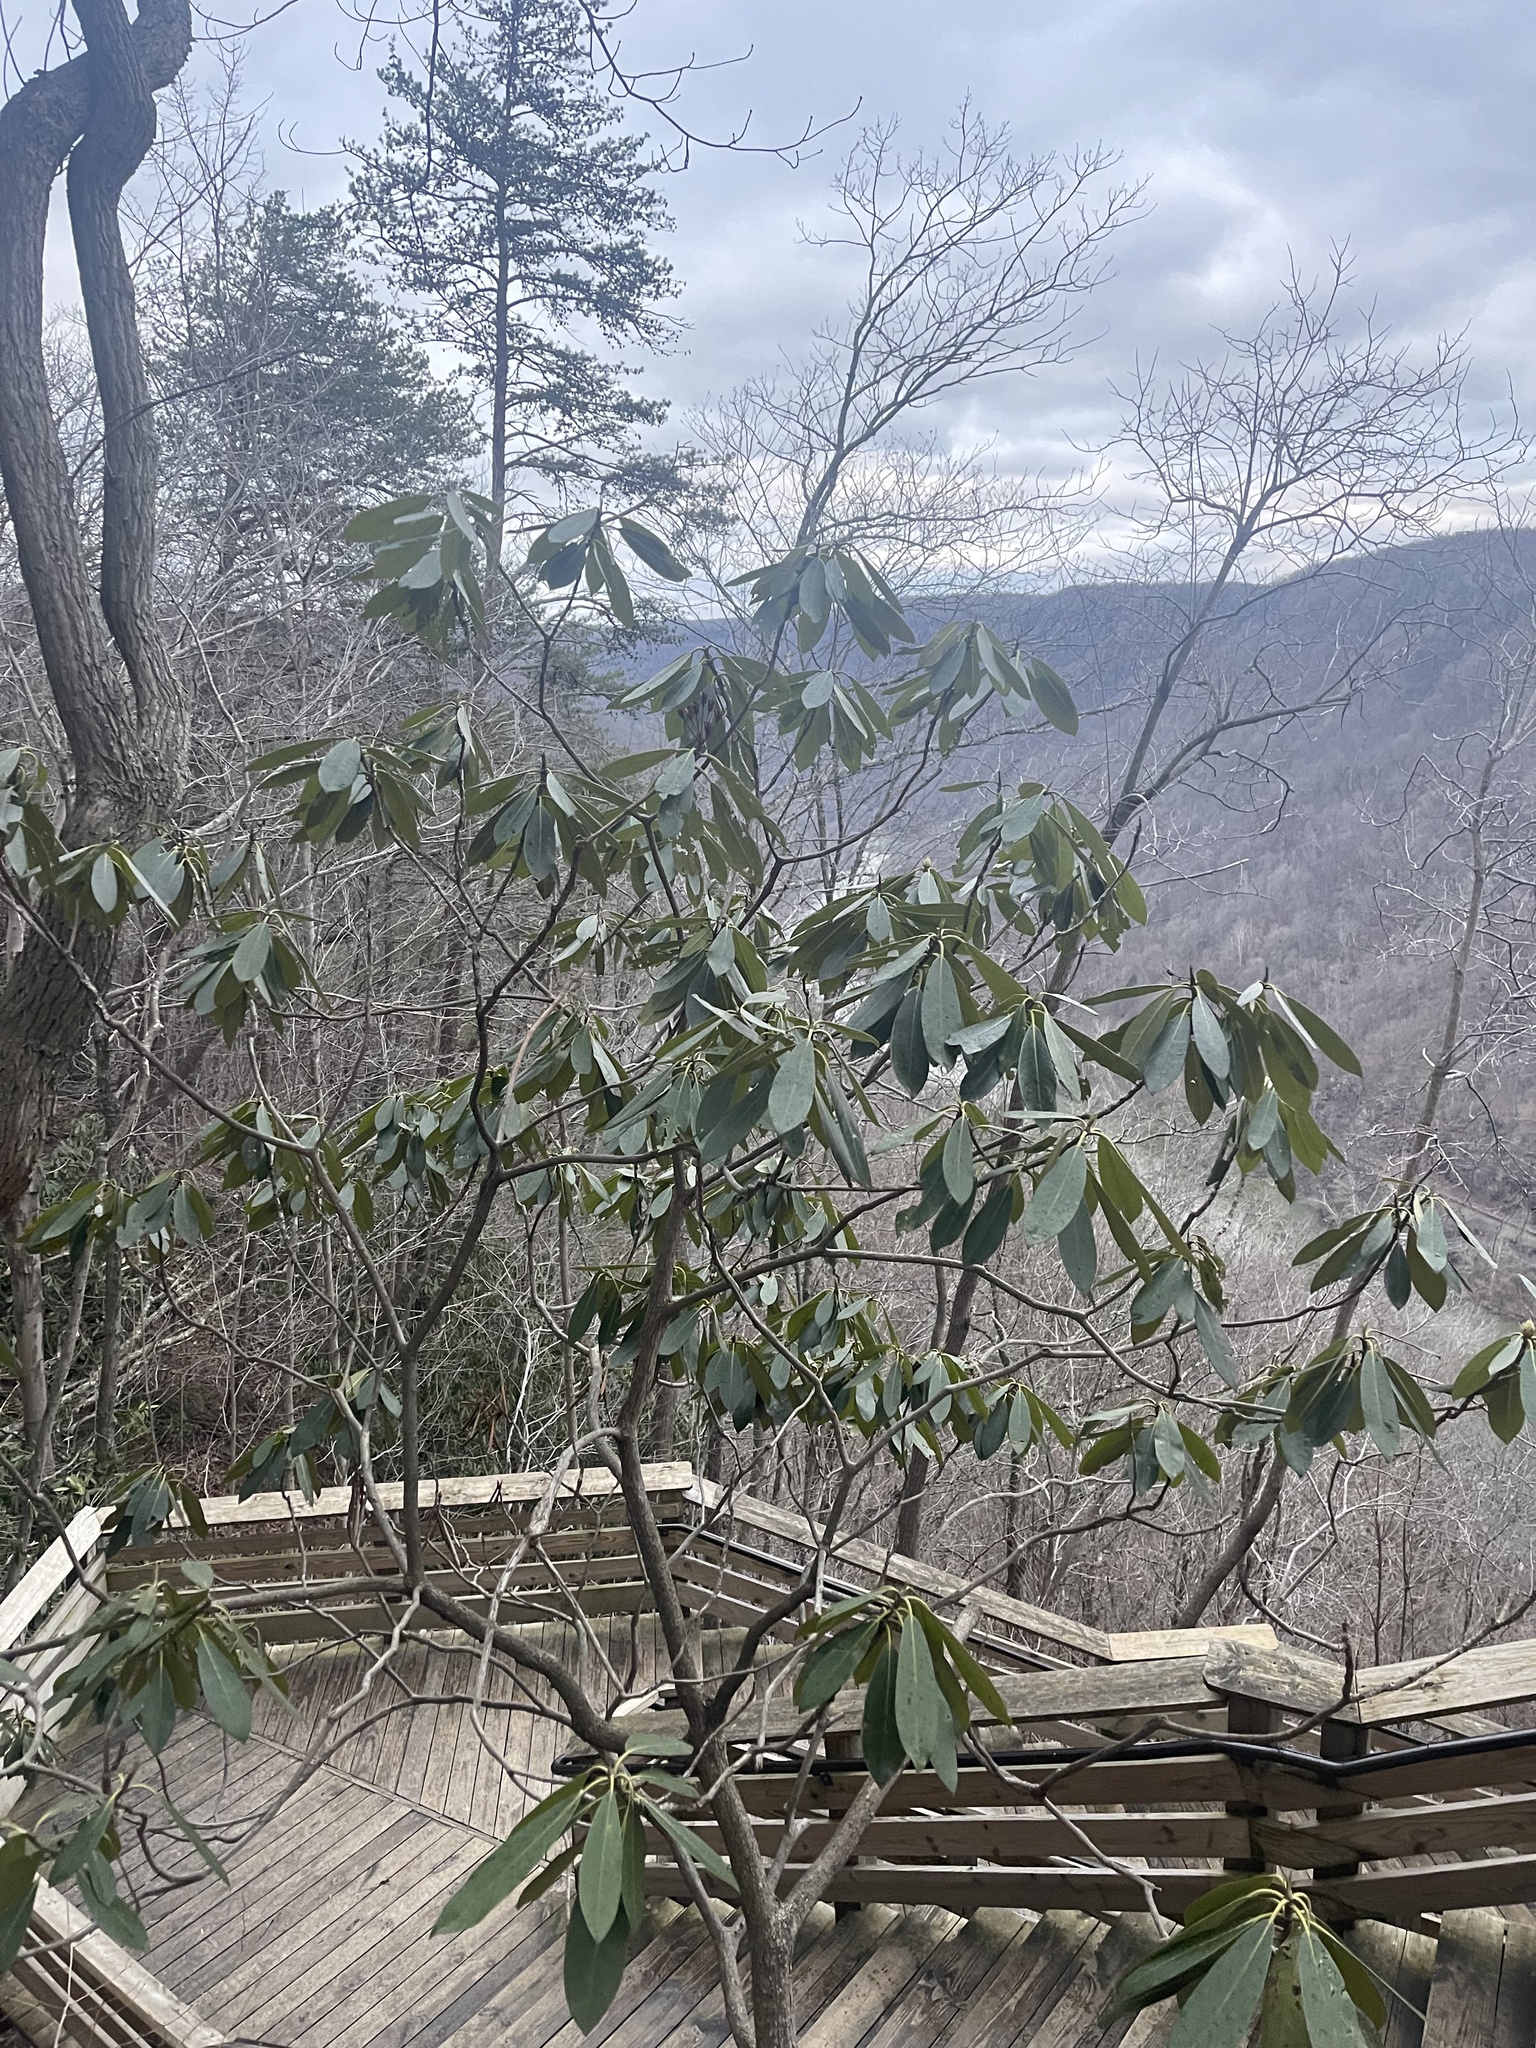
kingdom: Plantae
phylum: Tracheophyta
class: Magnoliopsida
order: Ericales
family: Ericaceae
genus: Rhododendron
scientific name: Rhododendron maximum
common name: Great rhododendron
